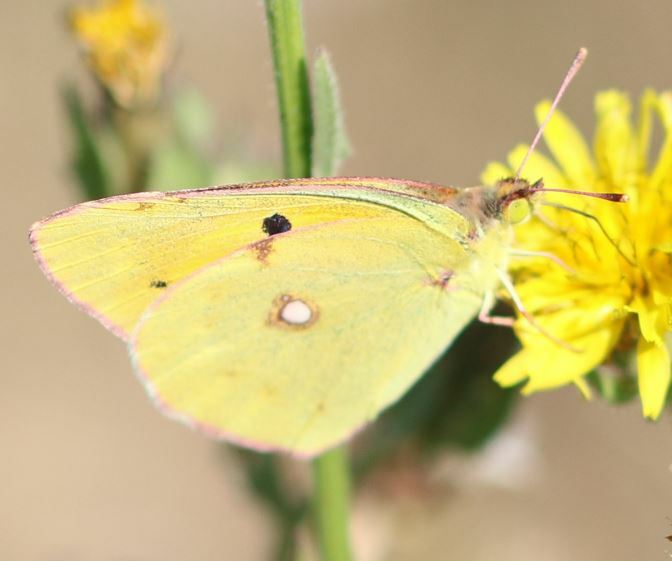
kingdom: Animalia
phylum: Arthropoda
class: Insecta
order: Lepidoptera
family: Pieridae
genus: Colias
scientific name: Colias croceus
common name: Clouded yellow
